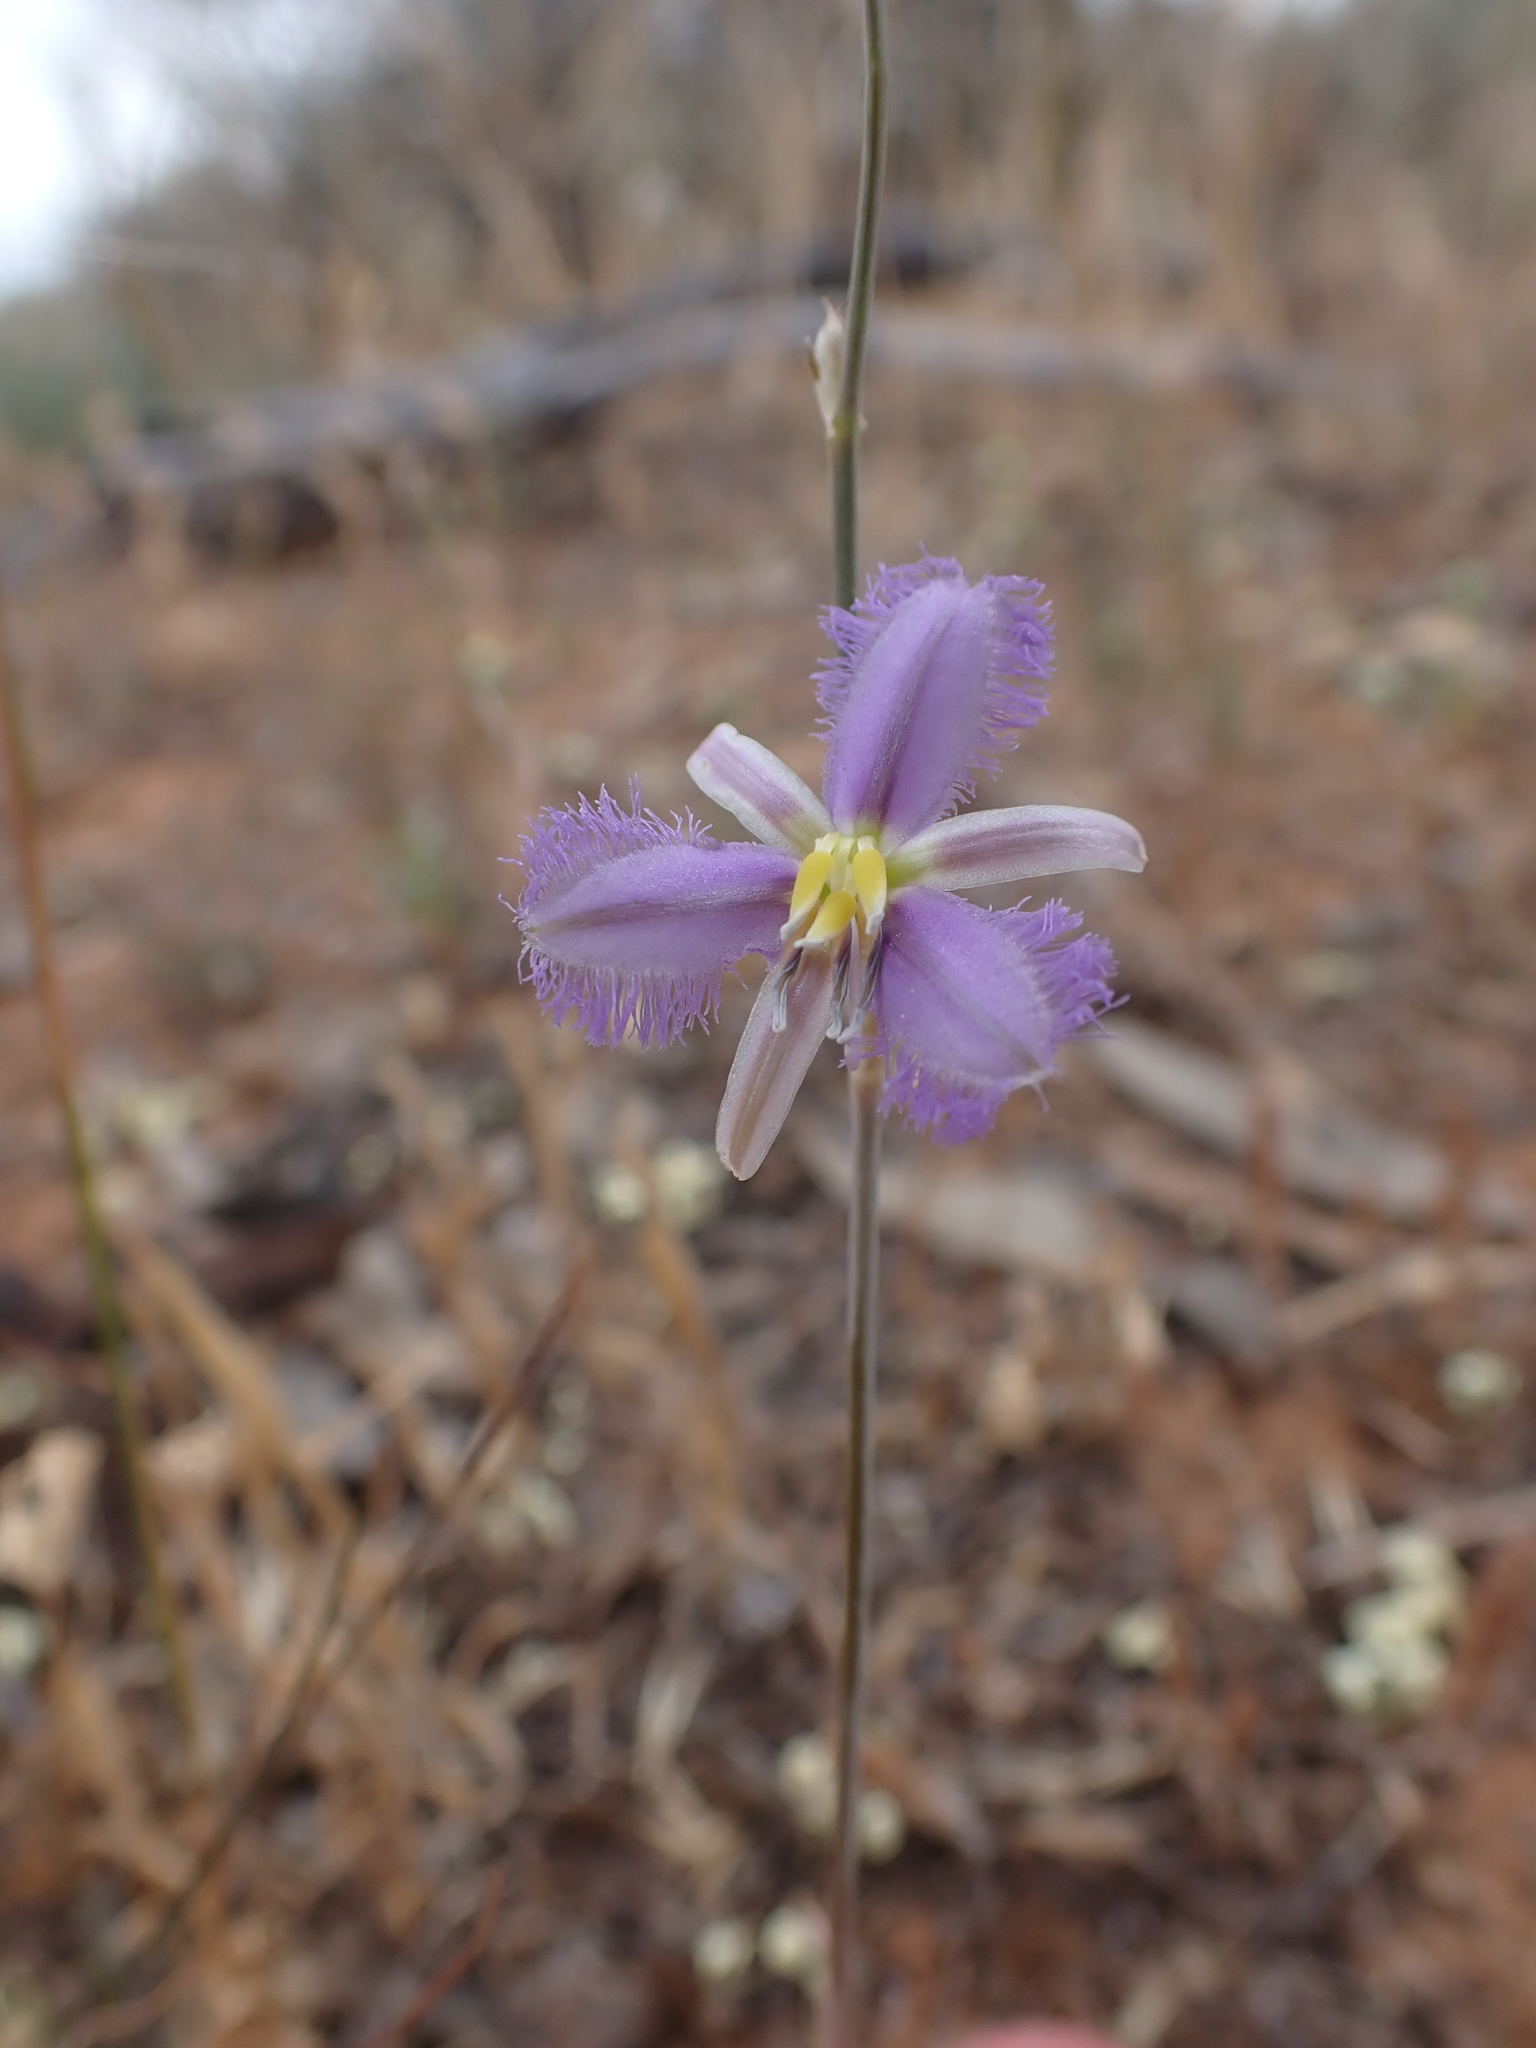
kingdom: Plantae
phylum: Tracheophyta
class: Liliopsida
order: Asparagales
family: Asparagaceae
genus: Thysanotus
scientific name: Thysanotus baueri
